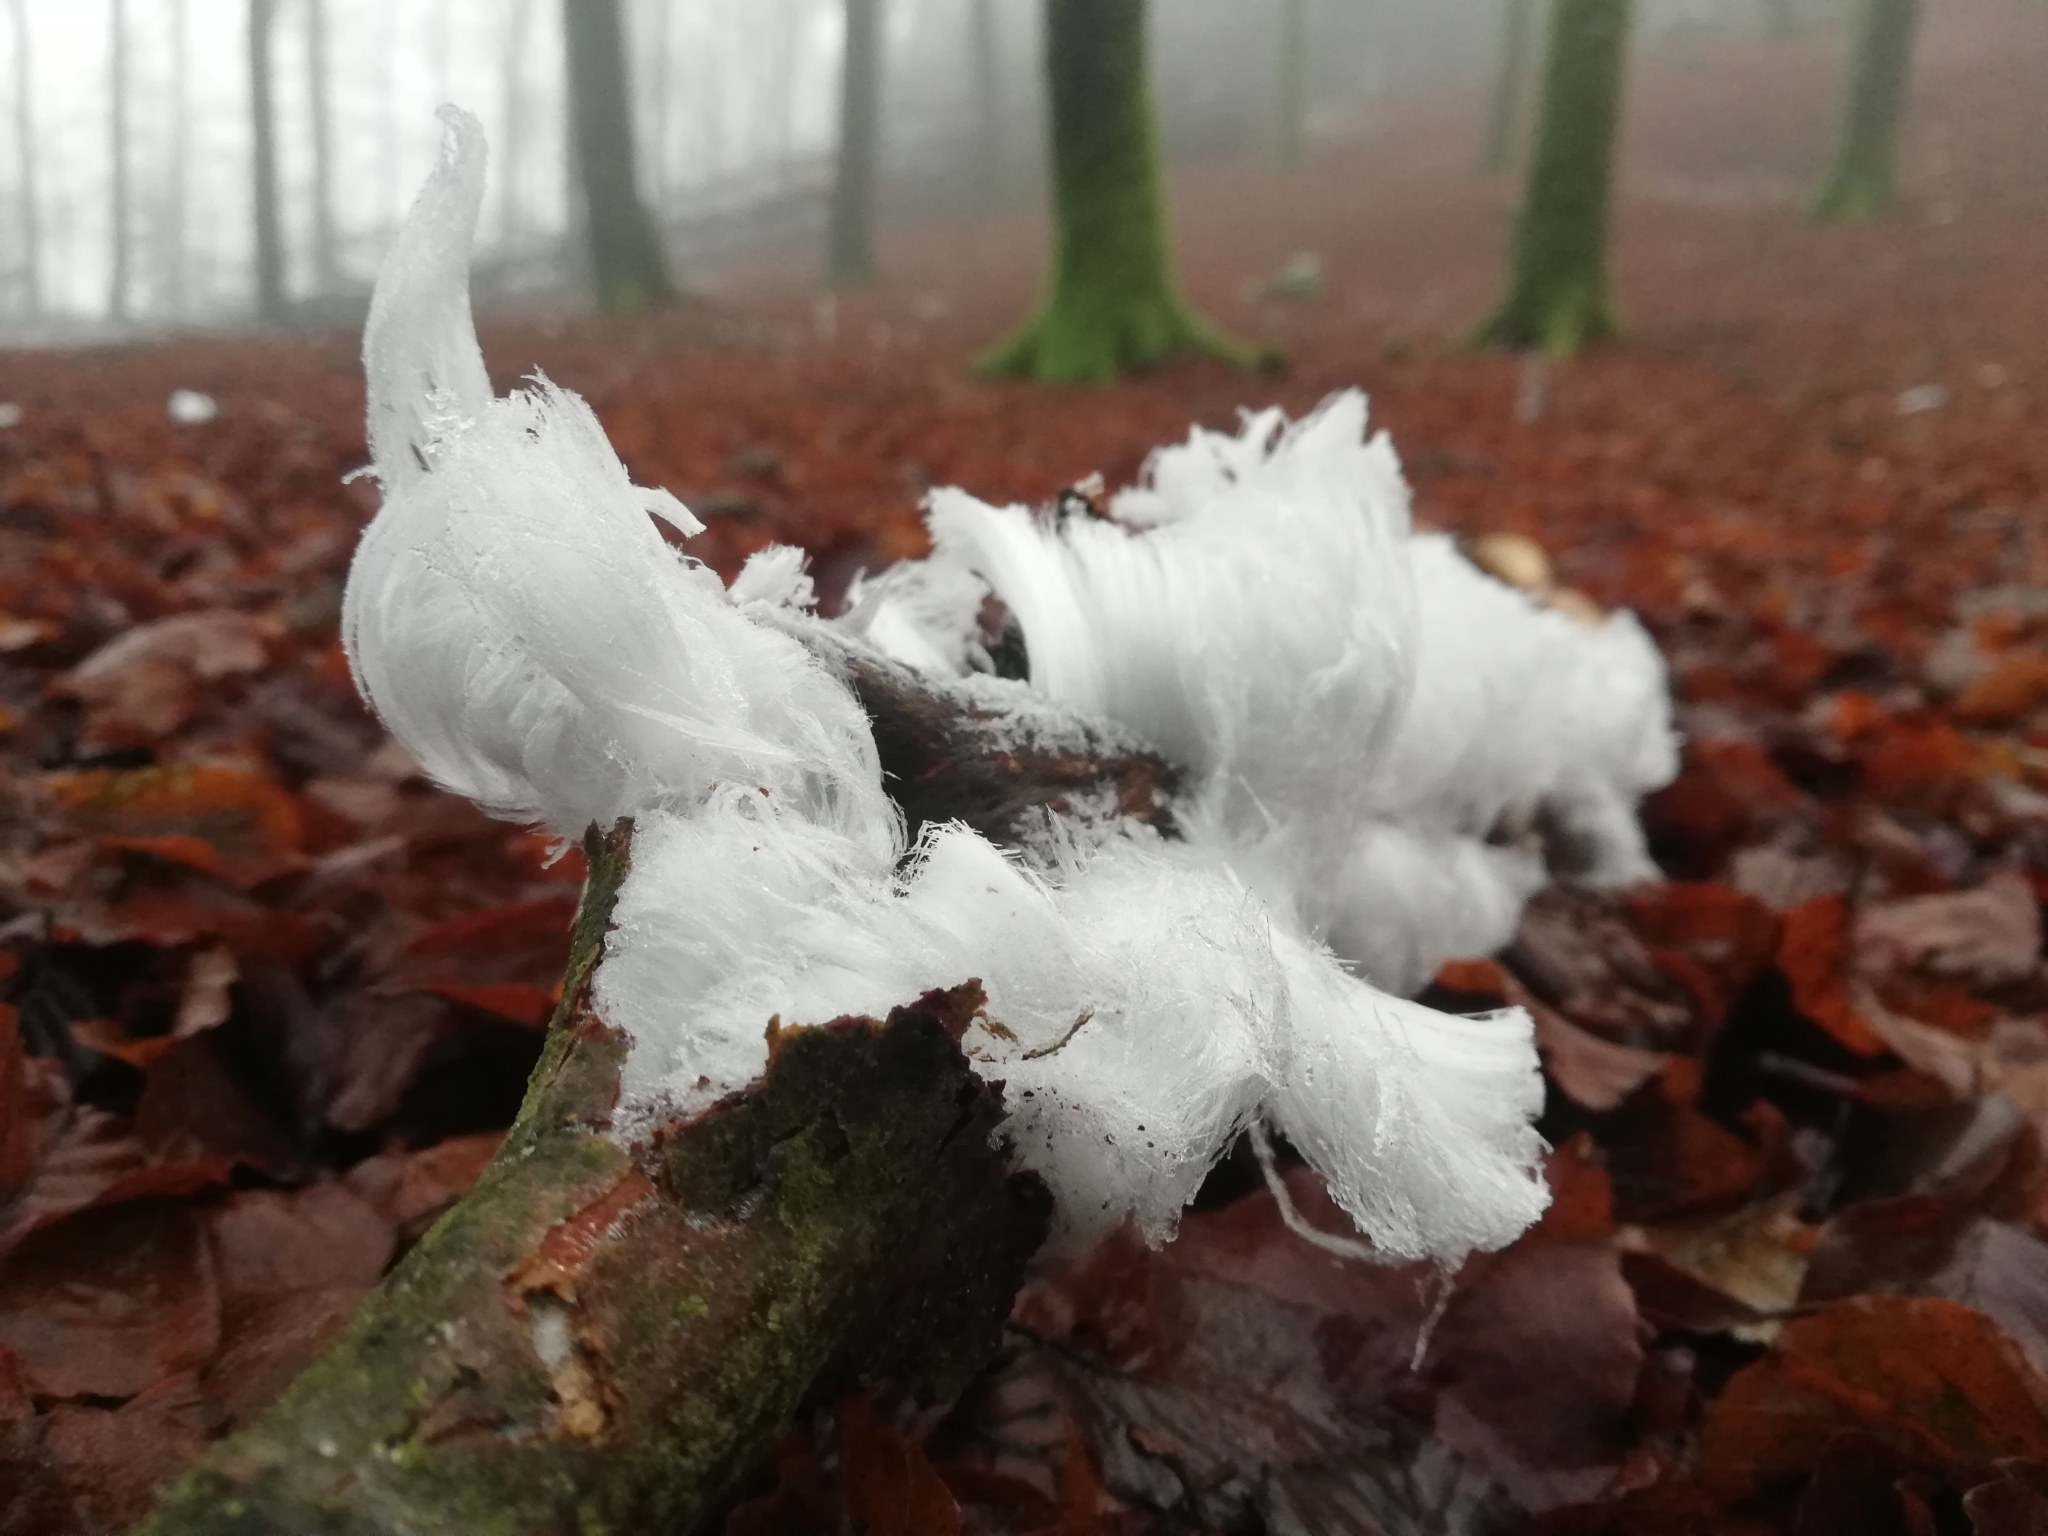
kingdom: Fungi
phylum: Basidiomycota
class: Agaricomycetes
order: Auriculariales
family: Auriculariaceae
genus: Exidiopsis
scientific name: Exidiopsis effusa
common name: Hair ice crust
